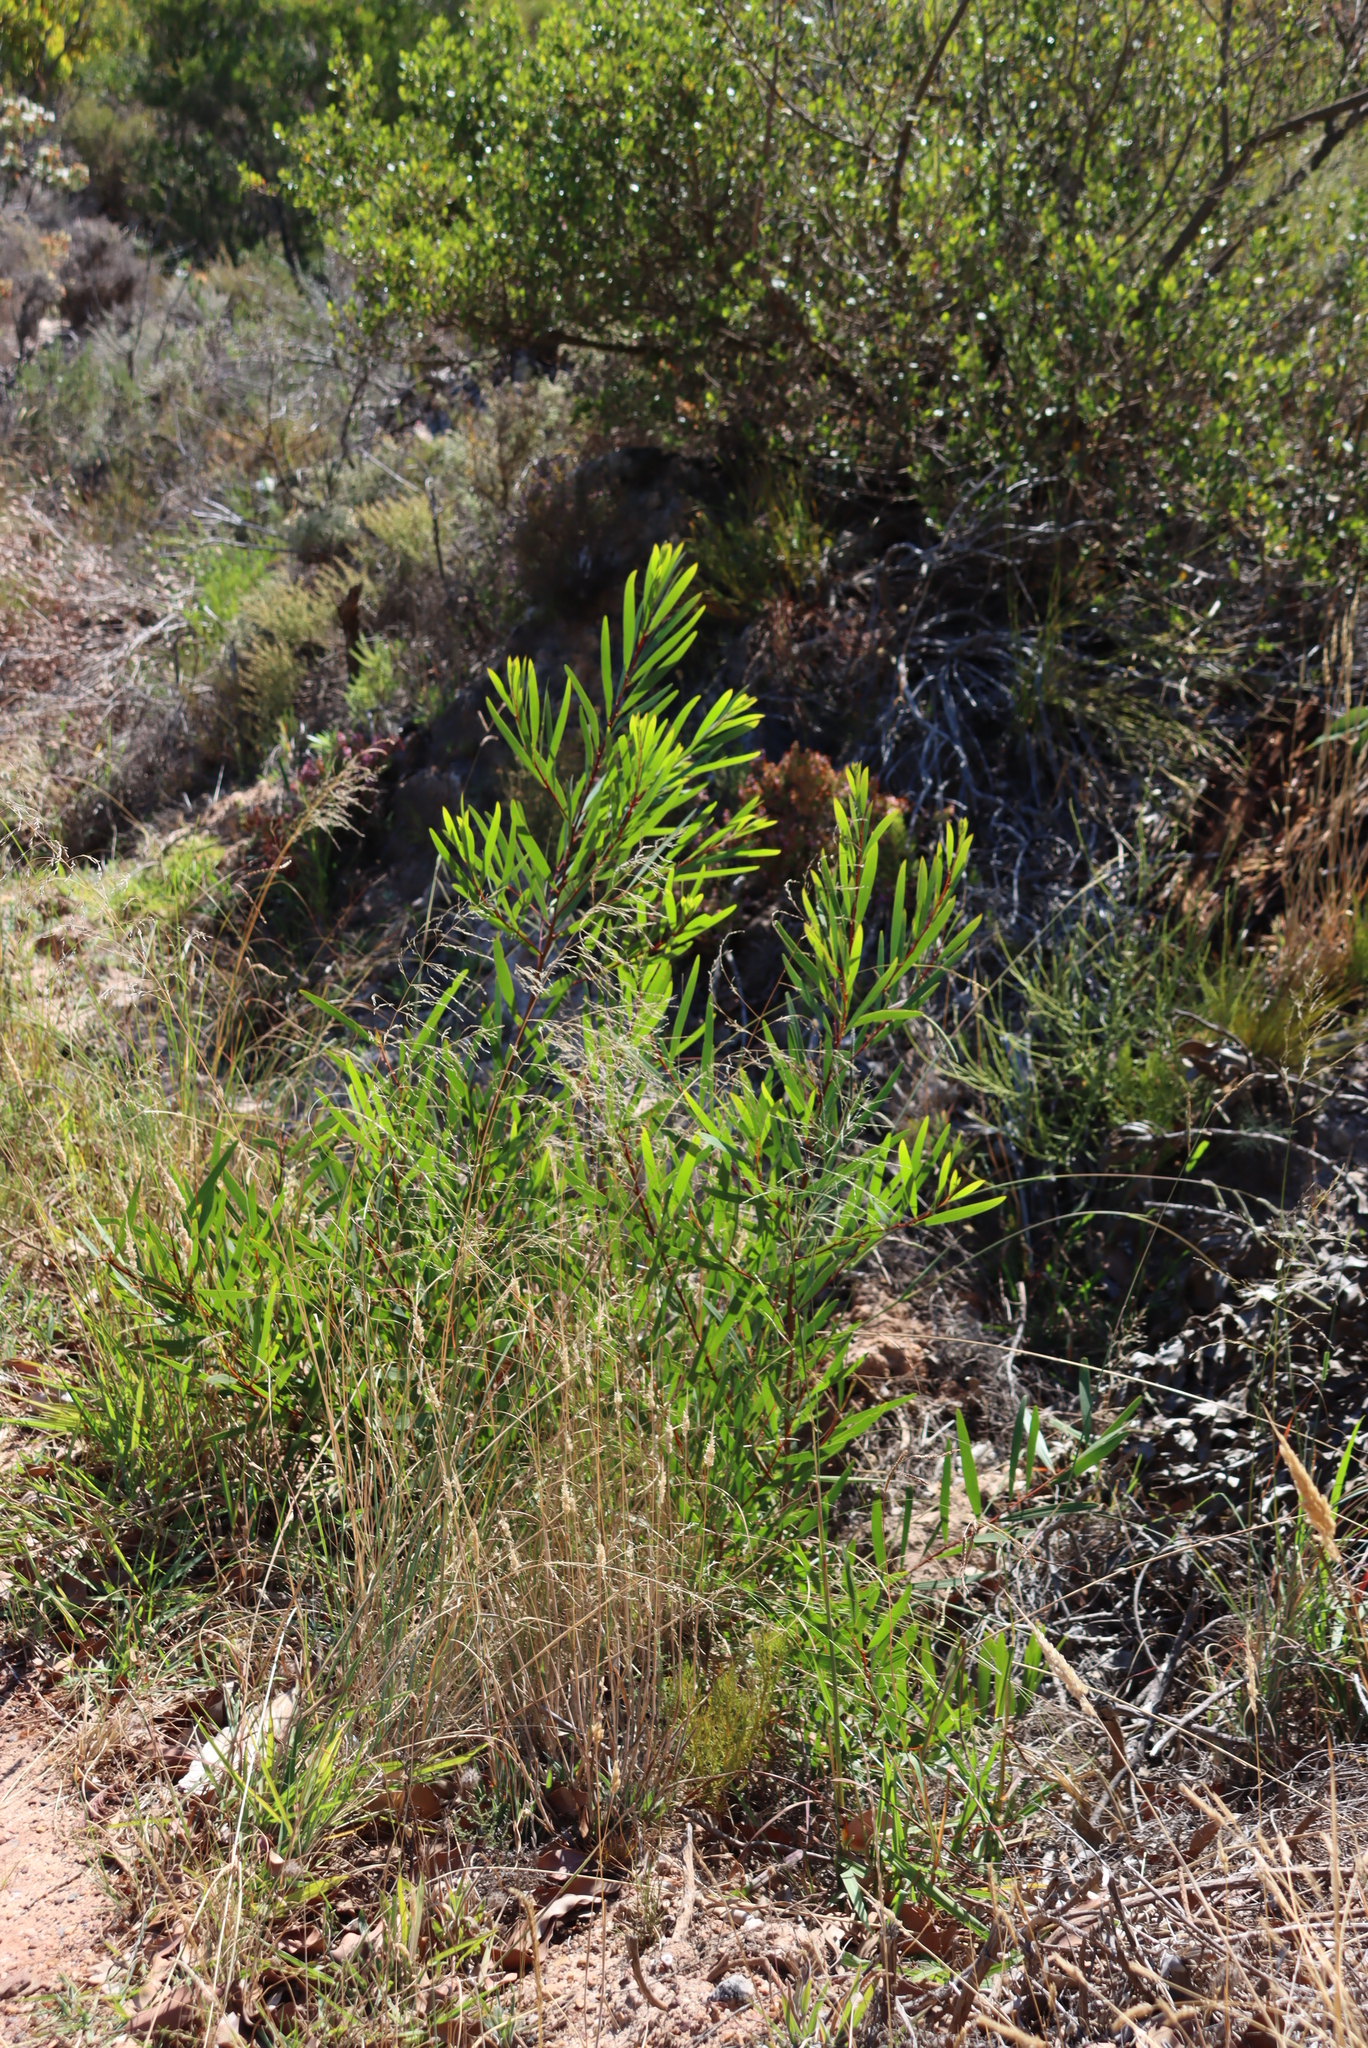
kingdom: Plantae
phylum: Tracheophyta
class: Magnoliopsida
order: Fabales
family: Fabaceae
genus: Acacia
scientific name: Acacia longifolia
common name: Sydney golden wattle
